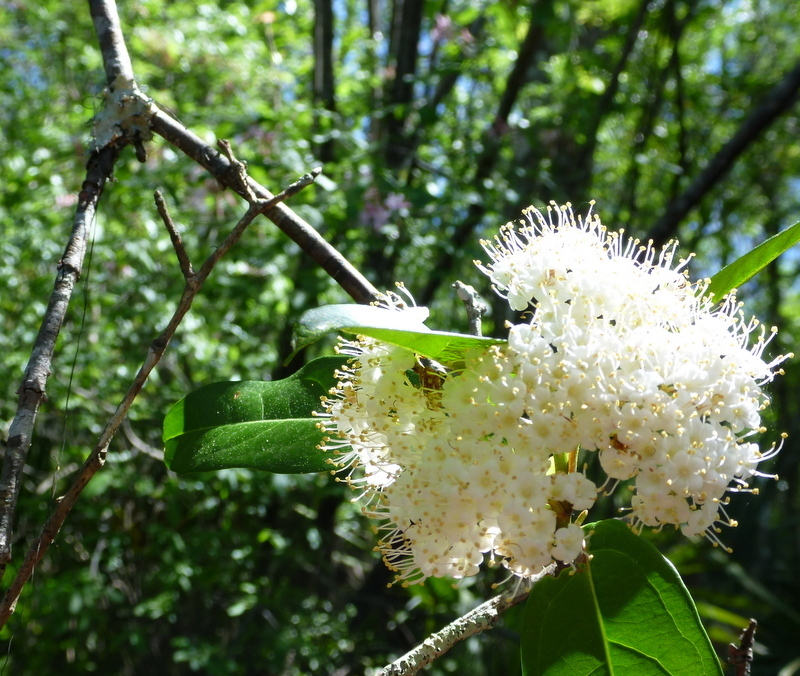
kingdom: Plantae
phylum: Tracheophyta
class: Magnoliopsida
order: Dipsacales
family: Viburnaceae
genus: Viburnum
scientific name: Viburnum nudum
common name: Possum haw
